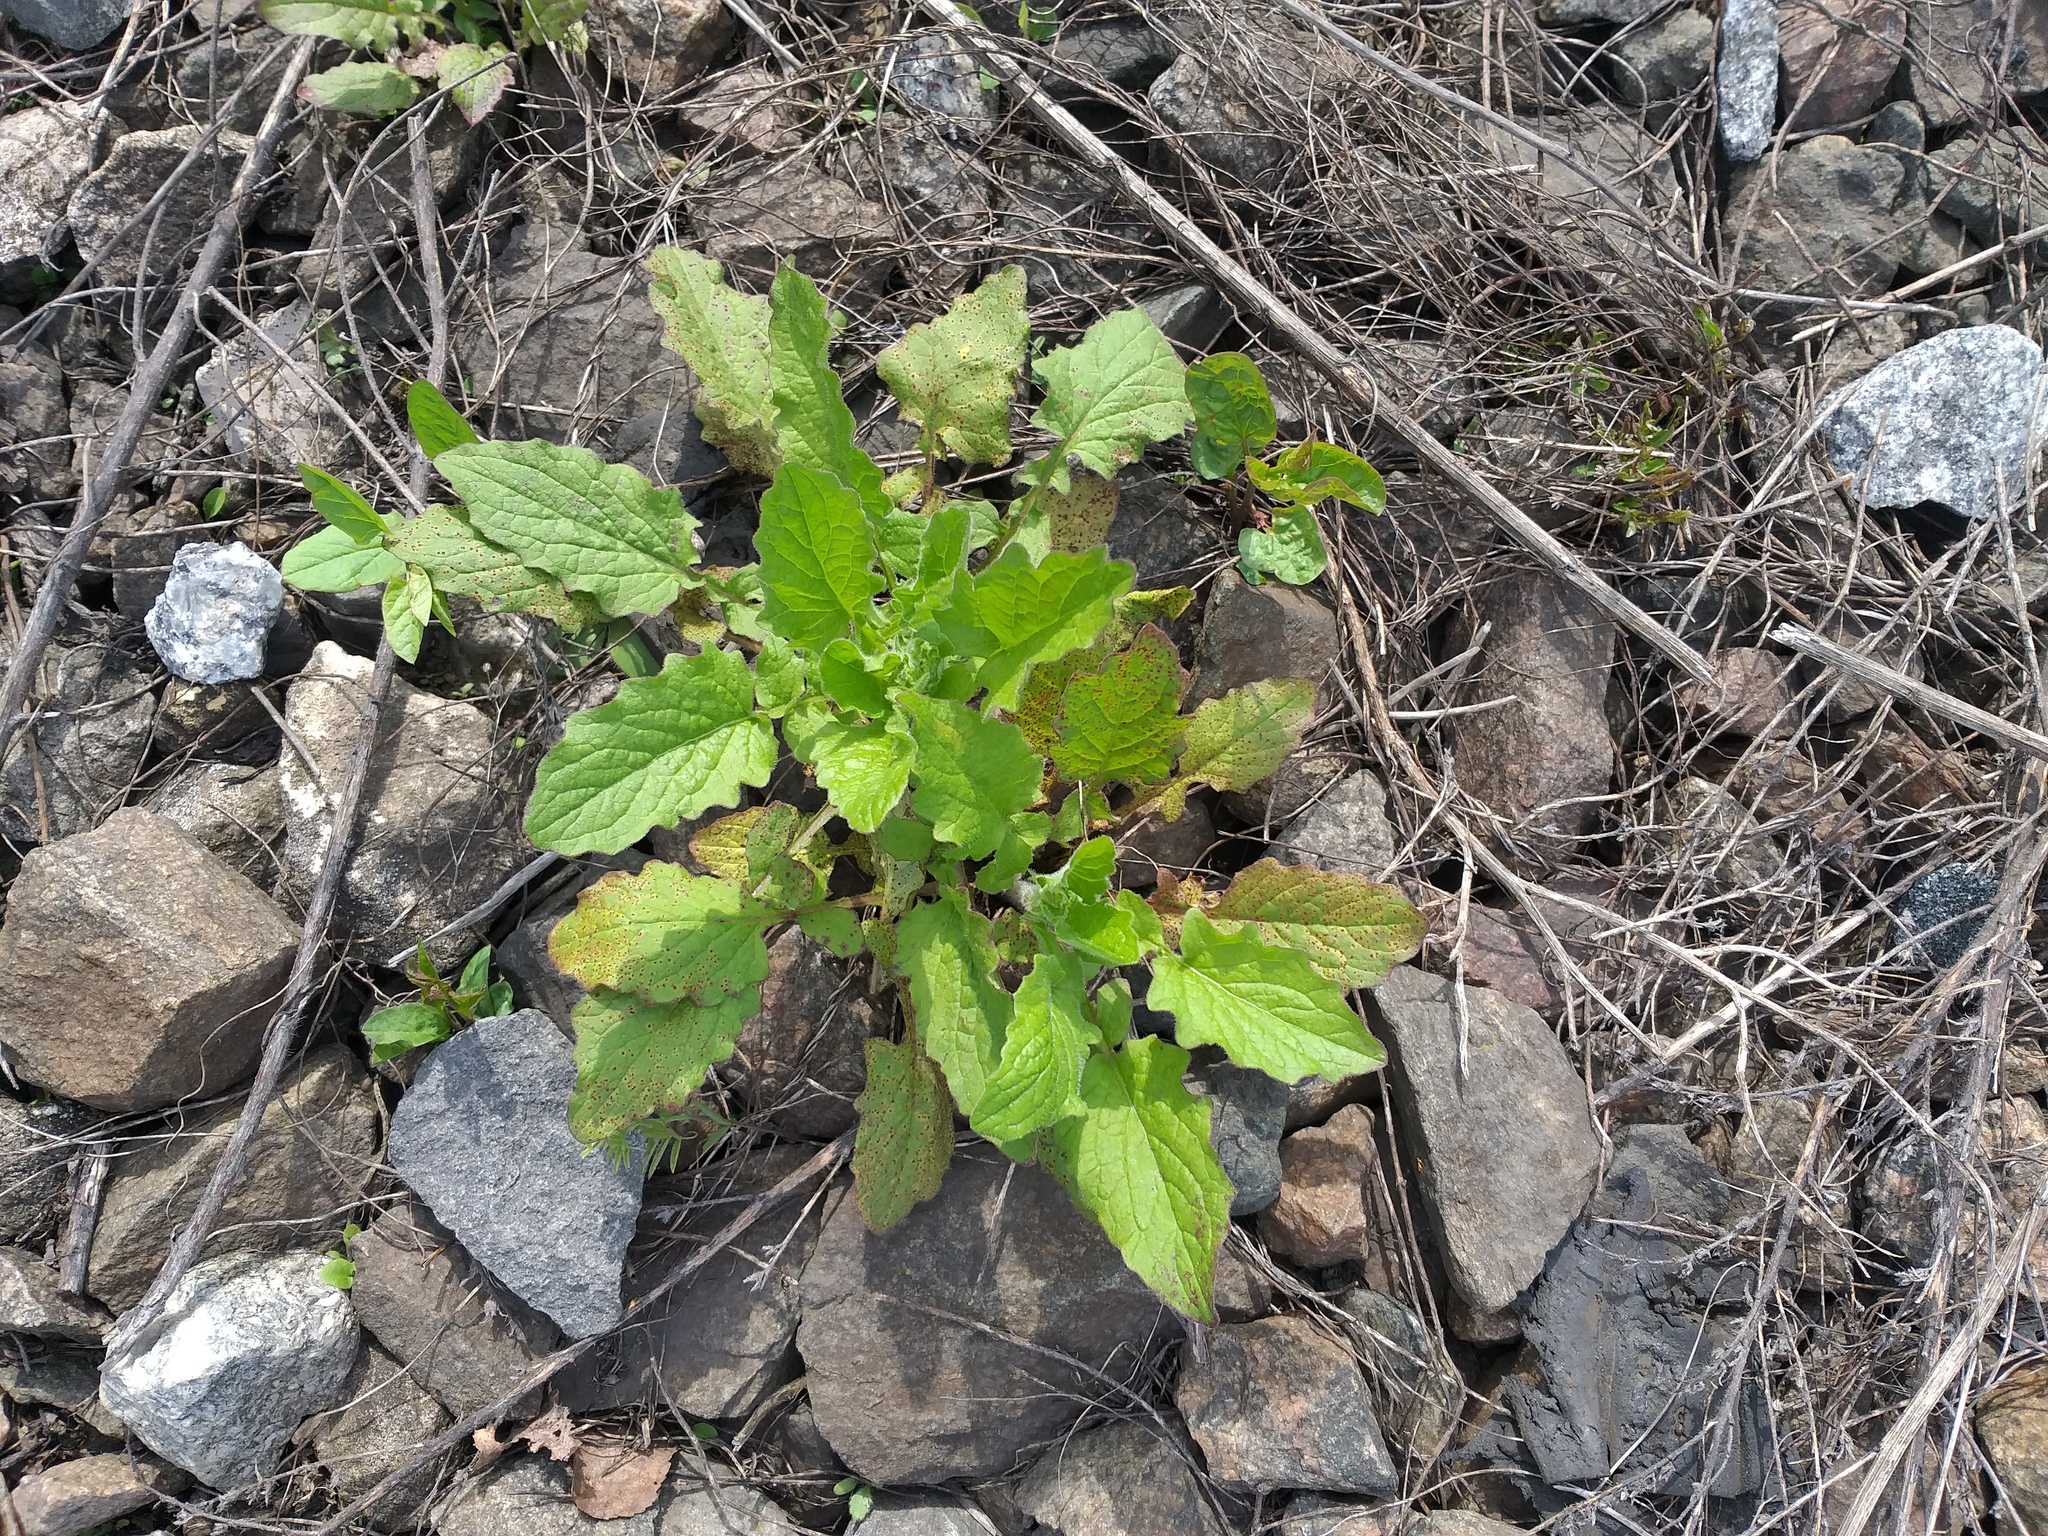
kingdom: Plantae
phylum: Tracheophyta
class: Magnoliopsida
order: Asterales
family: Asteraceae
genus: Lapsana
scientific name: Lapsana communis
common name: Nipplewort
